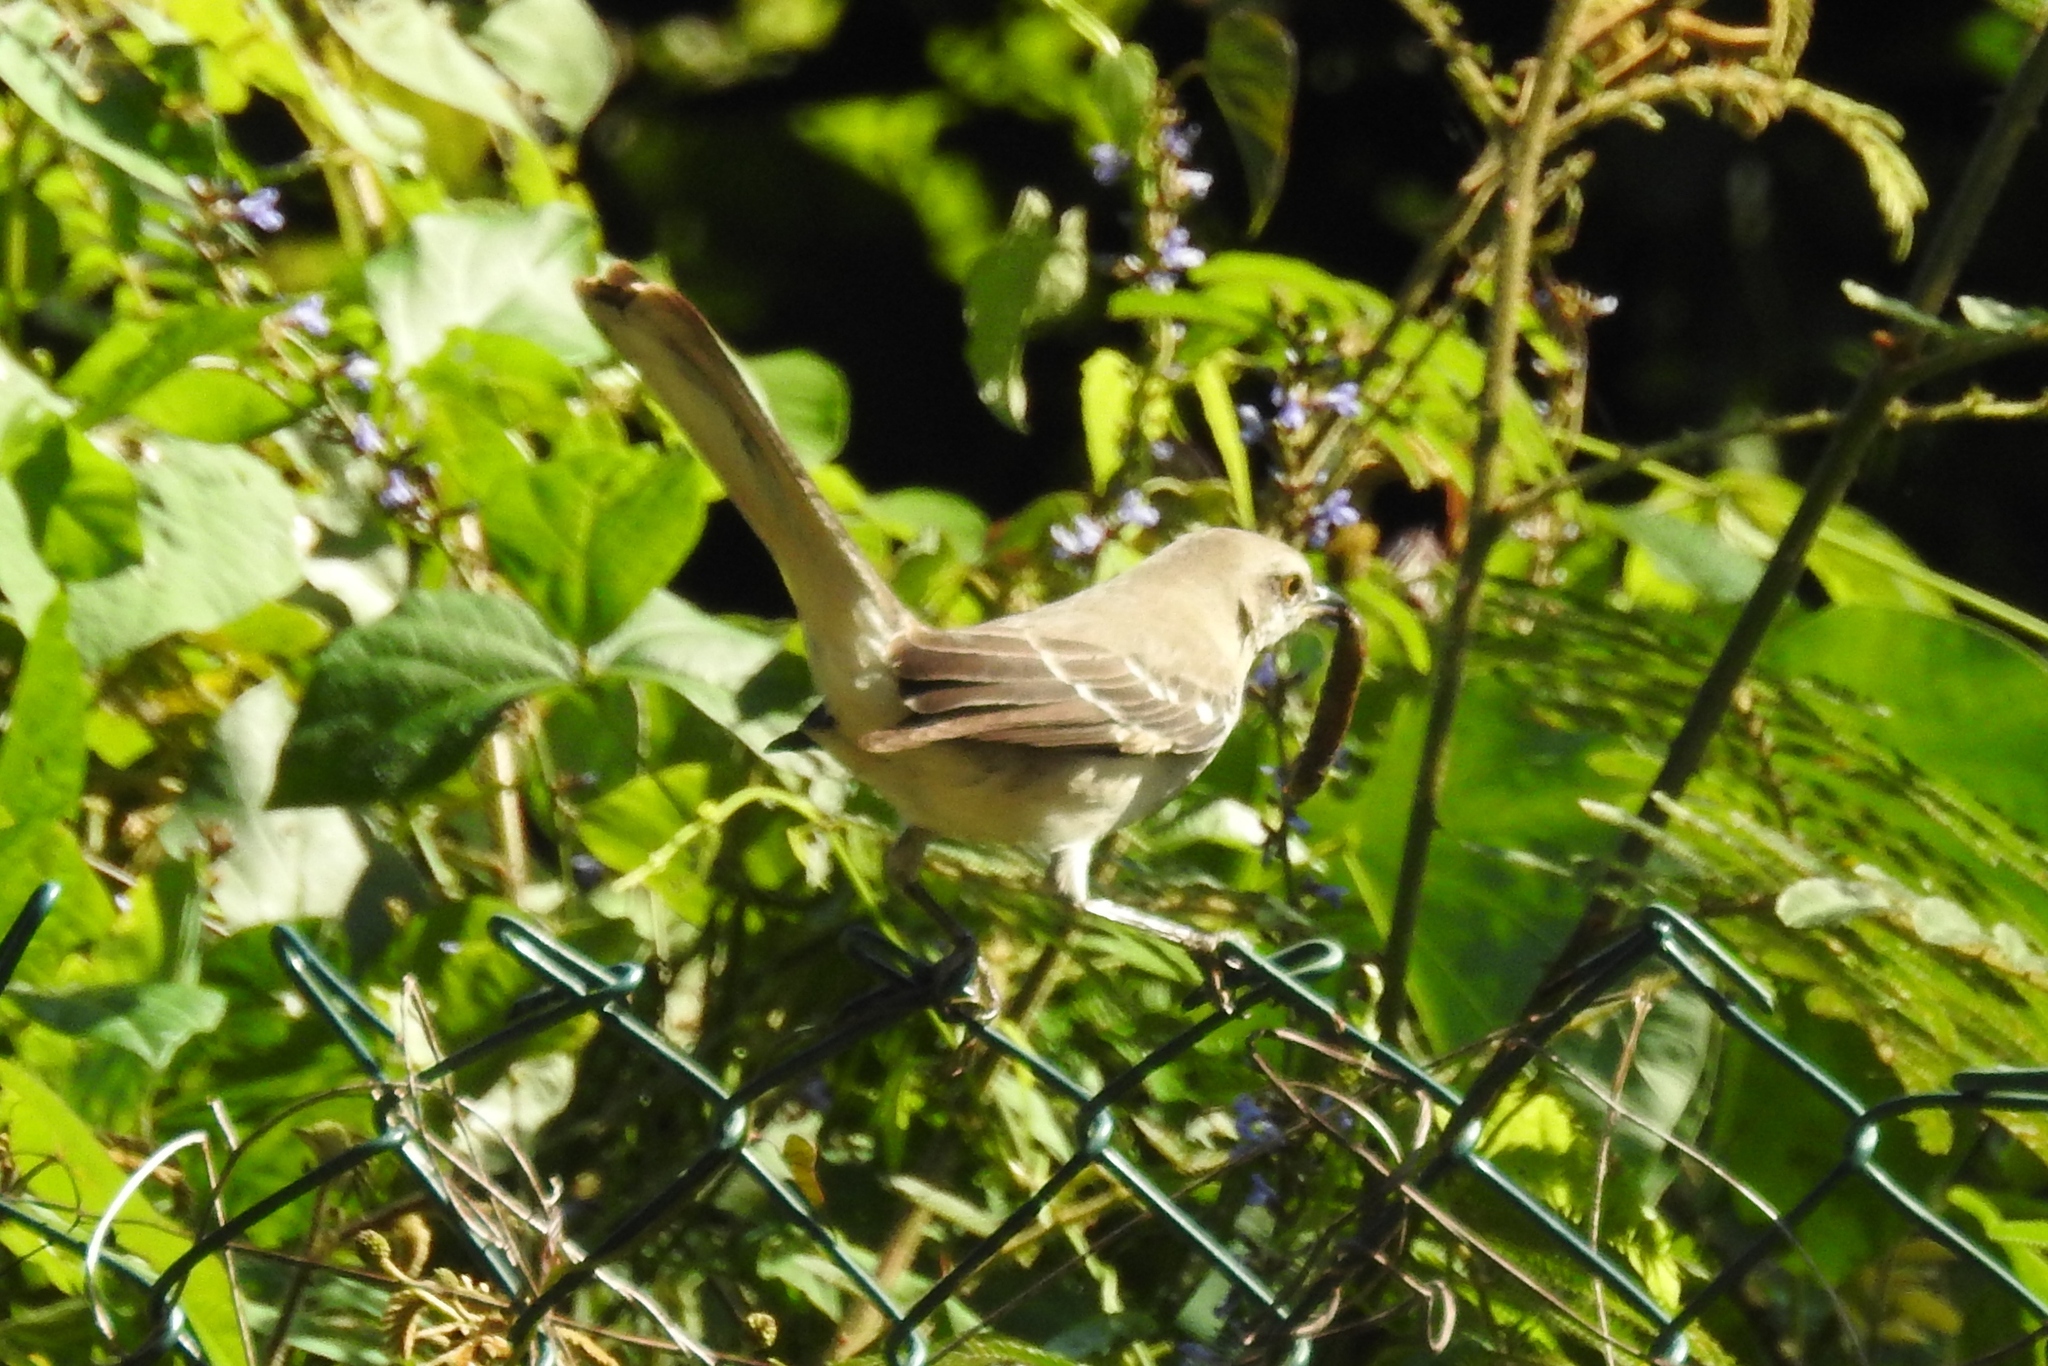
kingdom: Animalia
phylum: Chordata
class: Aves
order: Passeriformes
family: Mimidae
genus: Mimus
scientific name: Mimus polyglottos
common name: Northern mockingbird
